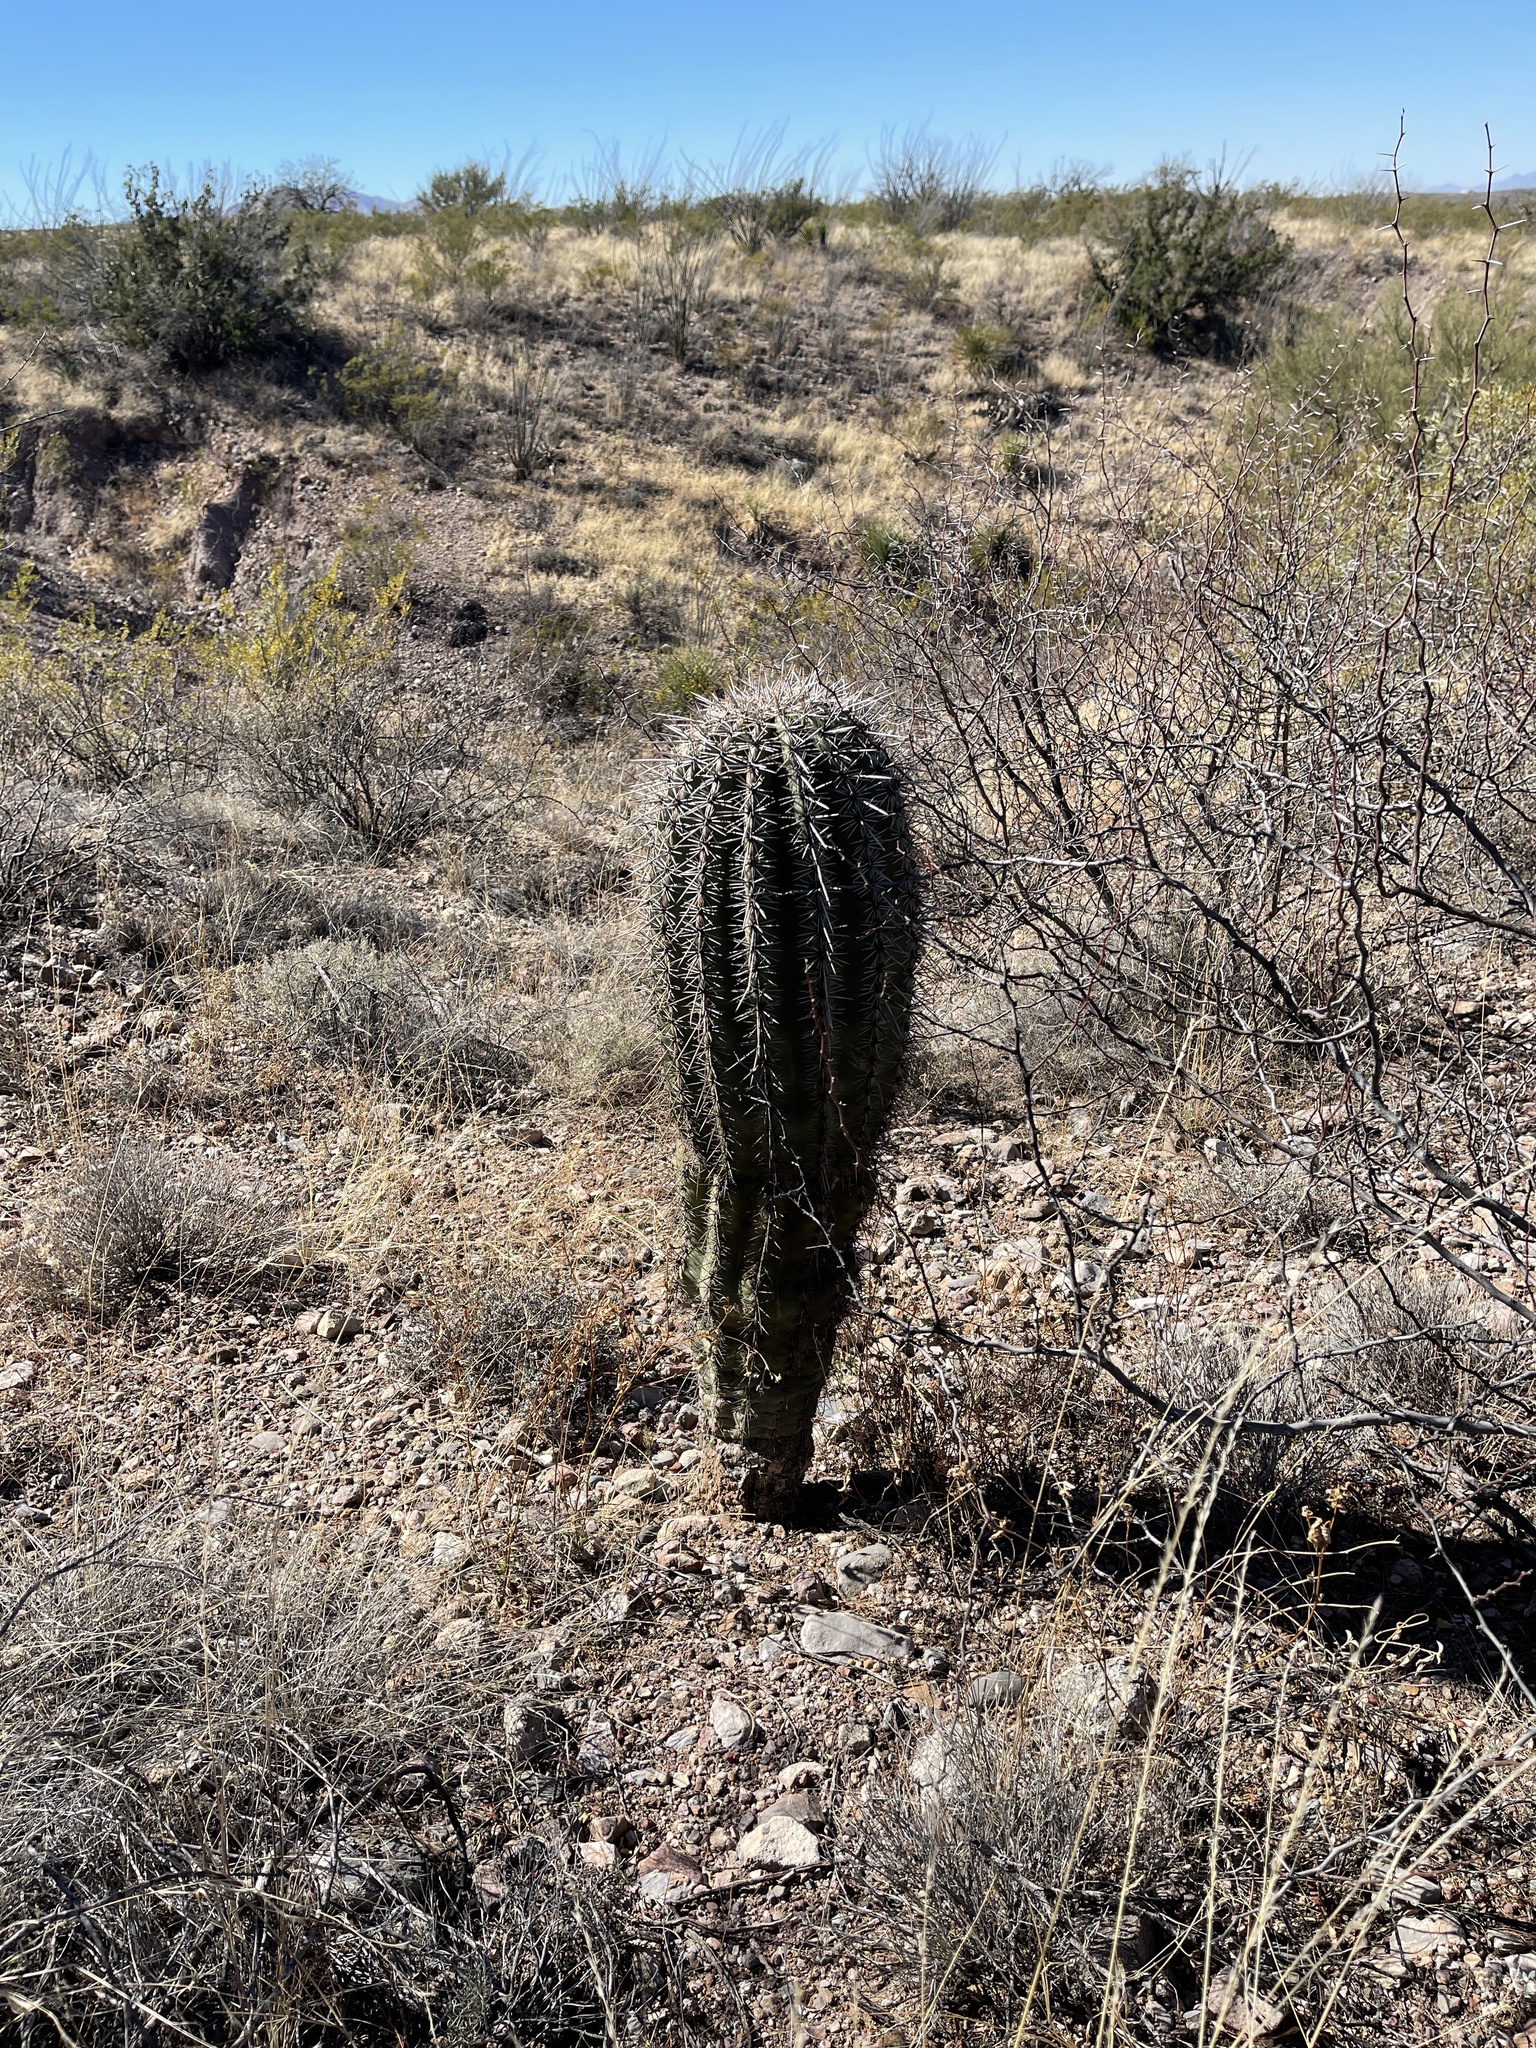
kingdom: Plantae
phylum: Tracheophyta
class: Magnoliopsida
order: Caryophyllales
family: Cactaceae
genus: Carnegiea
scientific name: Carnegiea gigantea
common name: Saguaro
